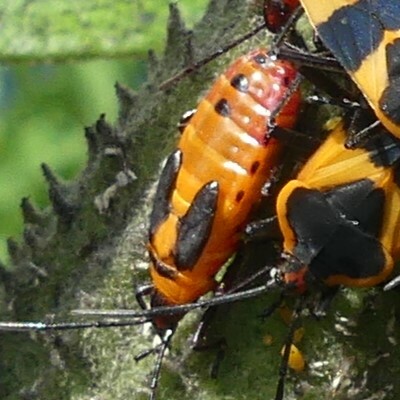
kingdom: Animalia
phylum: Arthropoda
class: Insecta
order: Hemiptera
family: Lygaeidae
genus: Oncopeltus
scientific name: Oncopeltus fasciatus
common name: Large milkweed bug
